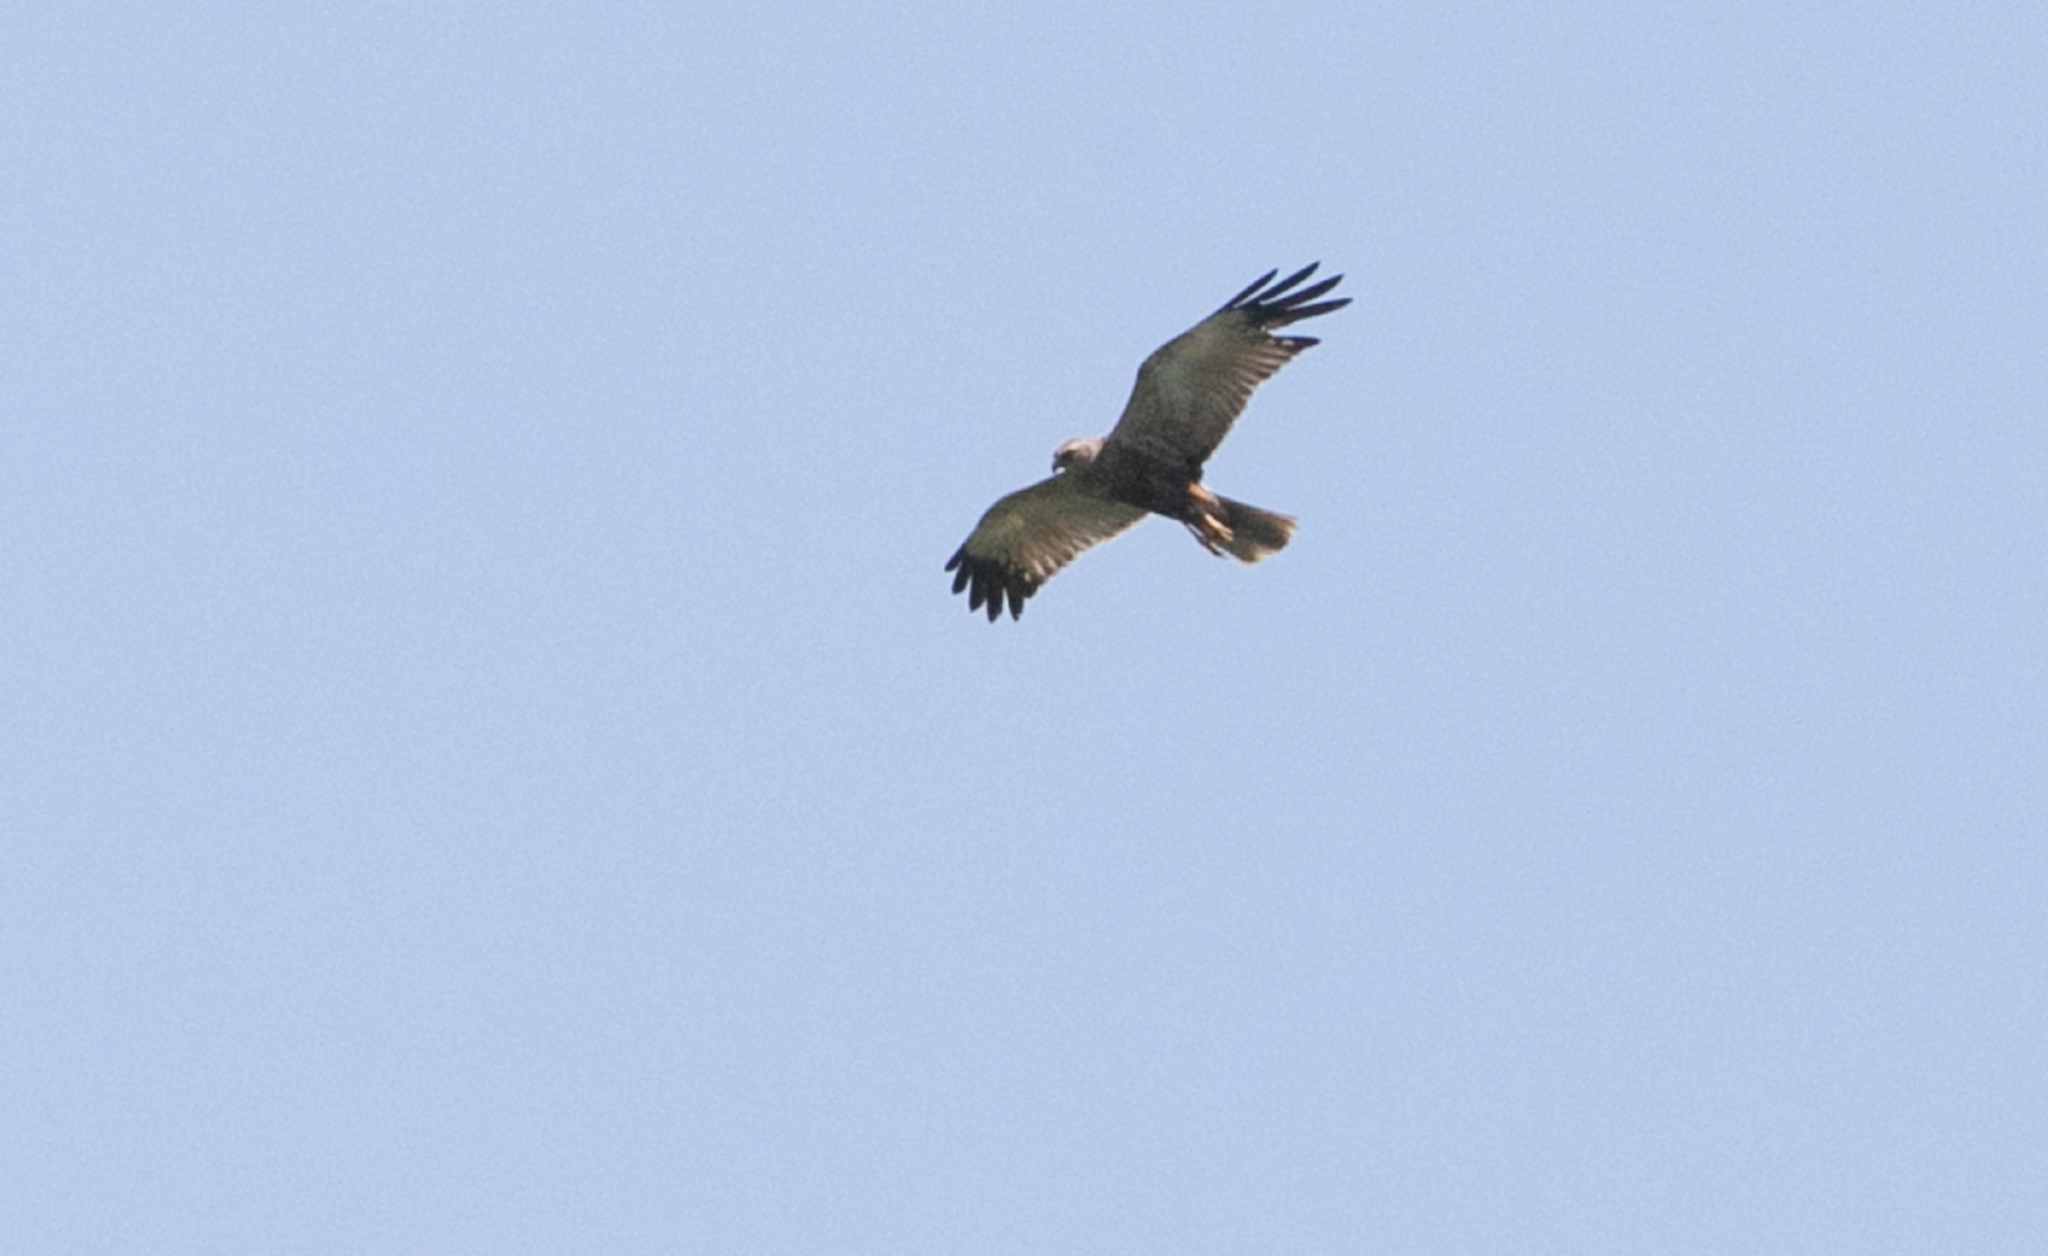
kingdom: Animalia
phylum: Chordata
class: Aves
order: Accipitriformes
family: Accipitridae
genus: Circus
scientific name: Circus aeruginosus
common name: Western marsh harrier
